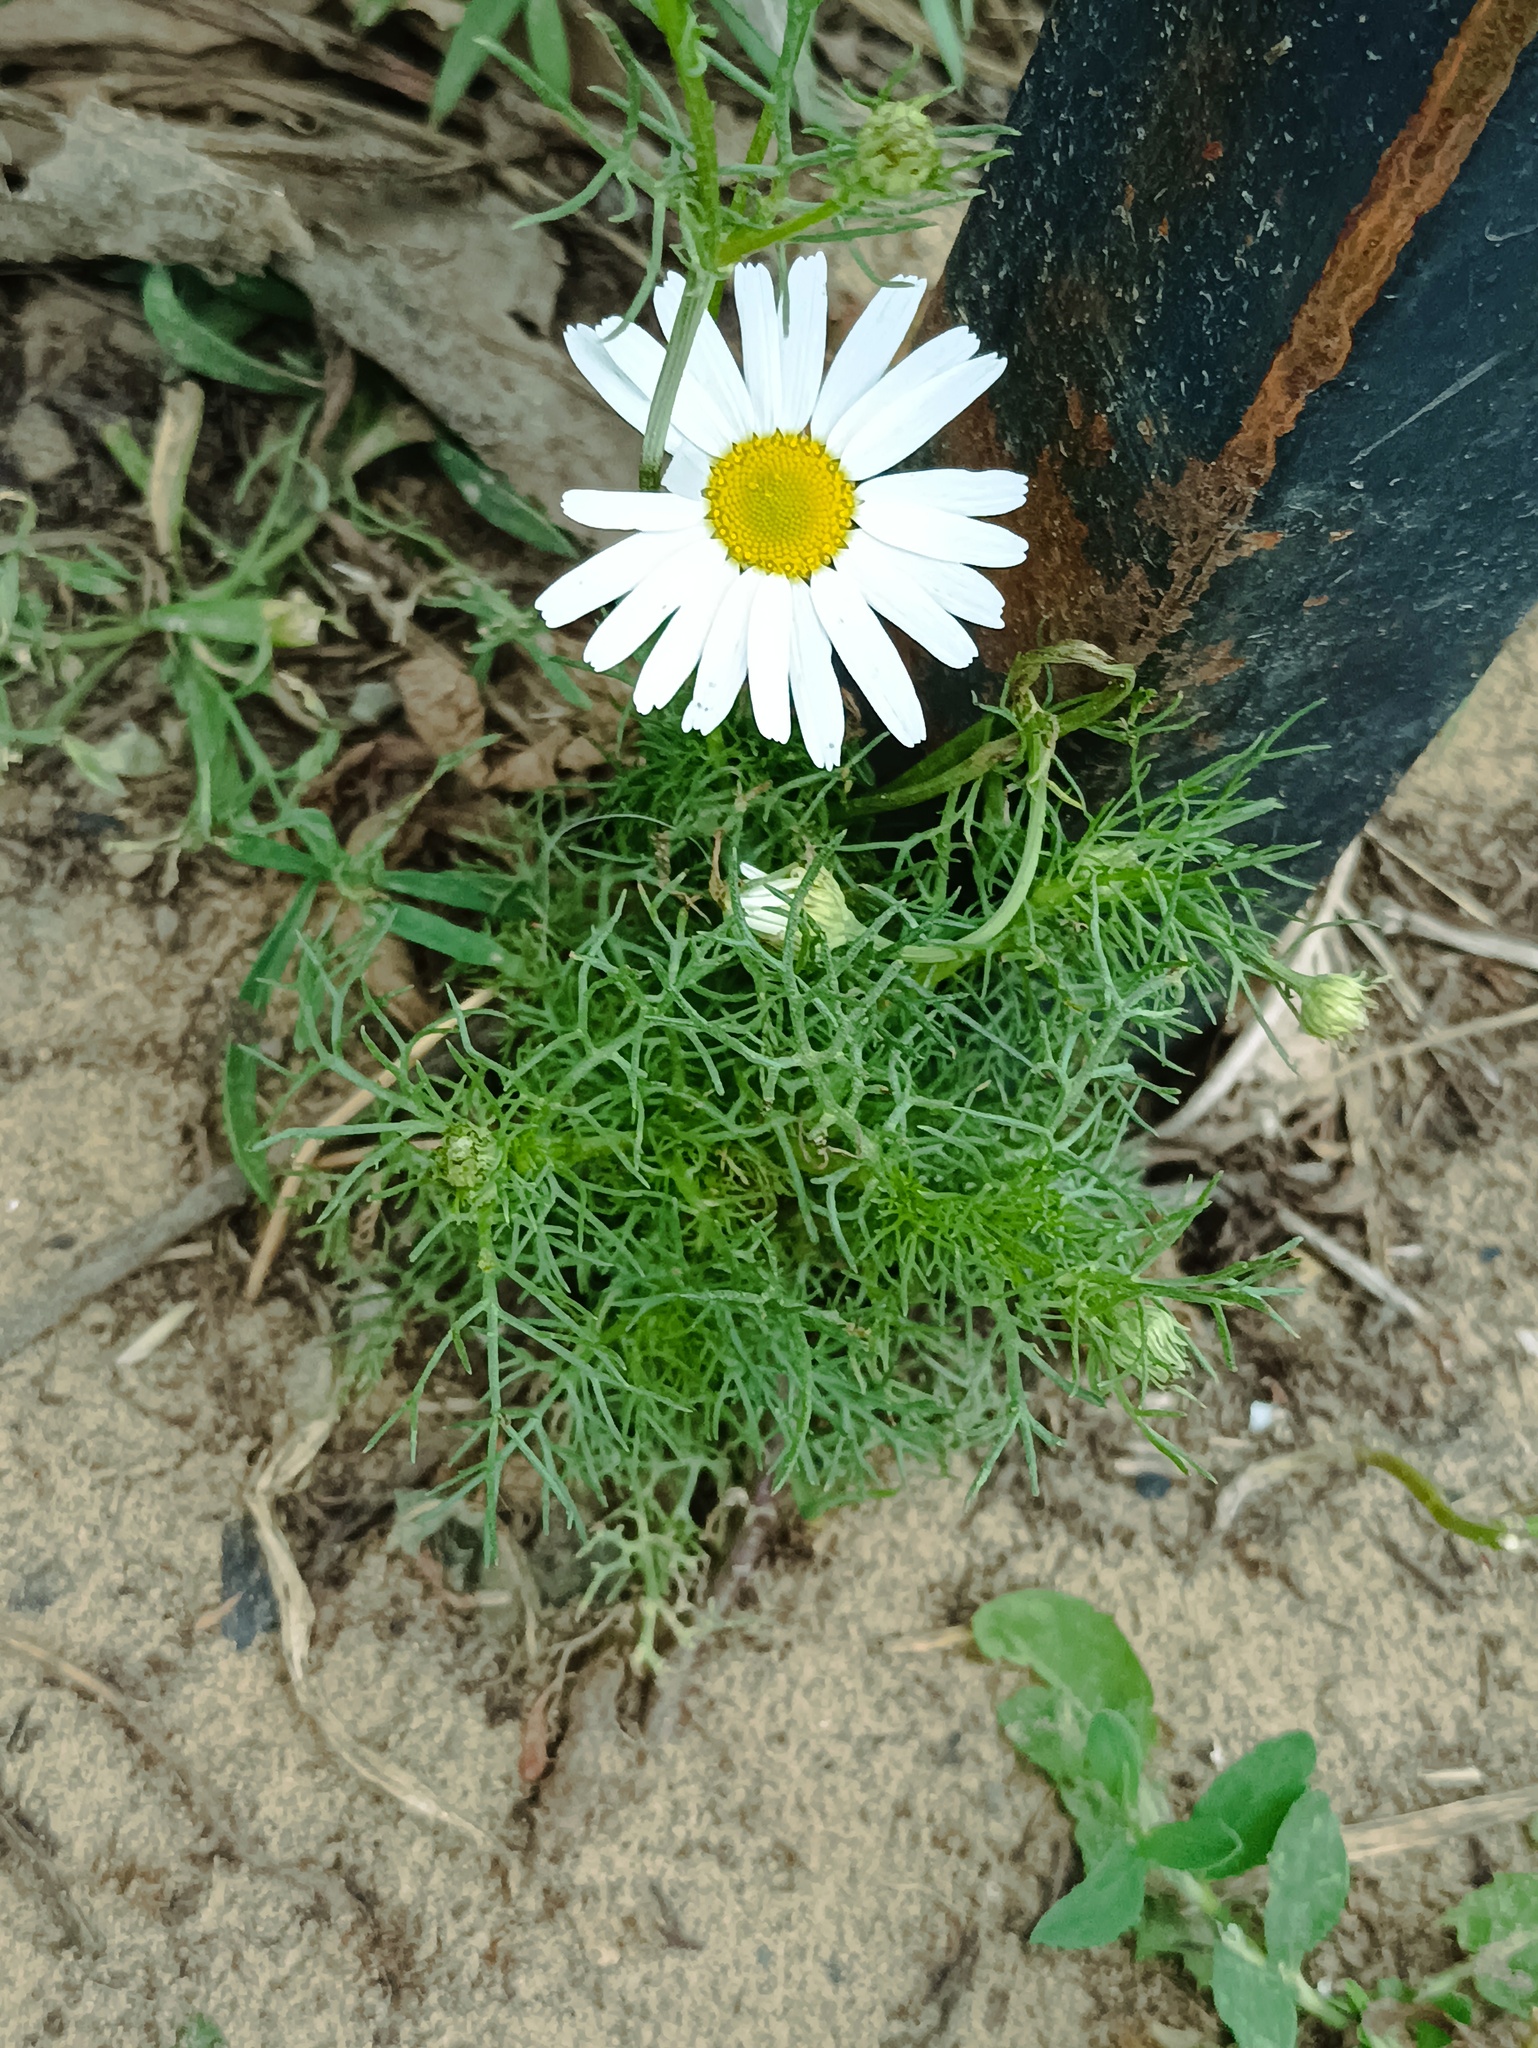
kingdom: Plantae
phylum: Tracheophyta
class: Magnoliopsida
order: Asterales
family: Asteraceae
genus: Tripleurospermum
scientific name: Tripleurospermum inodorum
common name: Scentless mayweed
